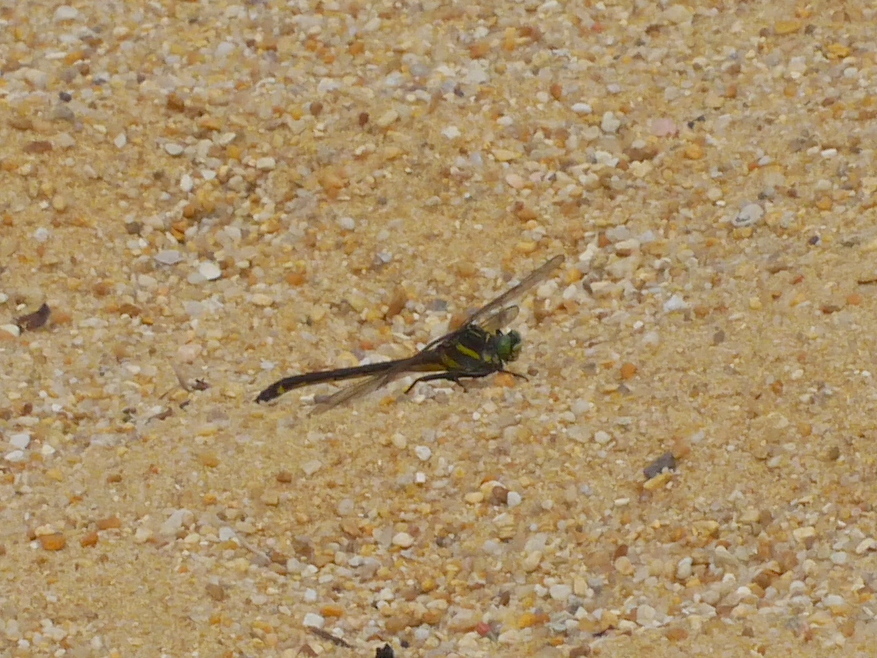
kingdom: Animalia
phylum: Arthropoda
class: Insecta
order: Odonata
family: Gomphidae
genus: Hagenius
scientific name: Hagenius brevistylus
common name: Dragonhunter
